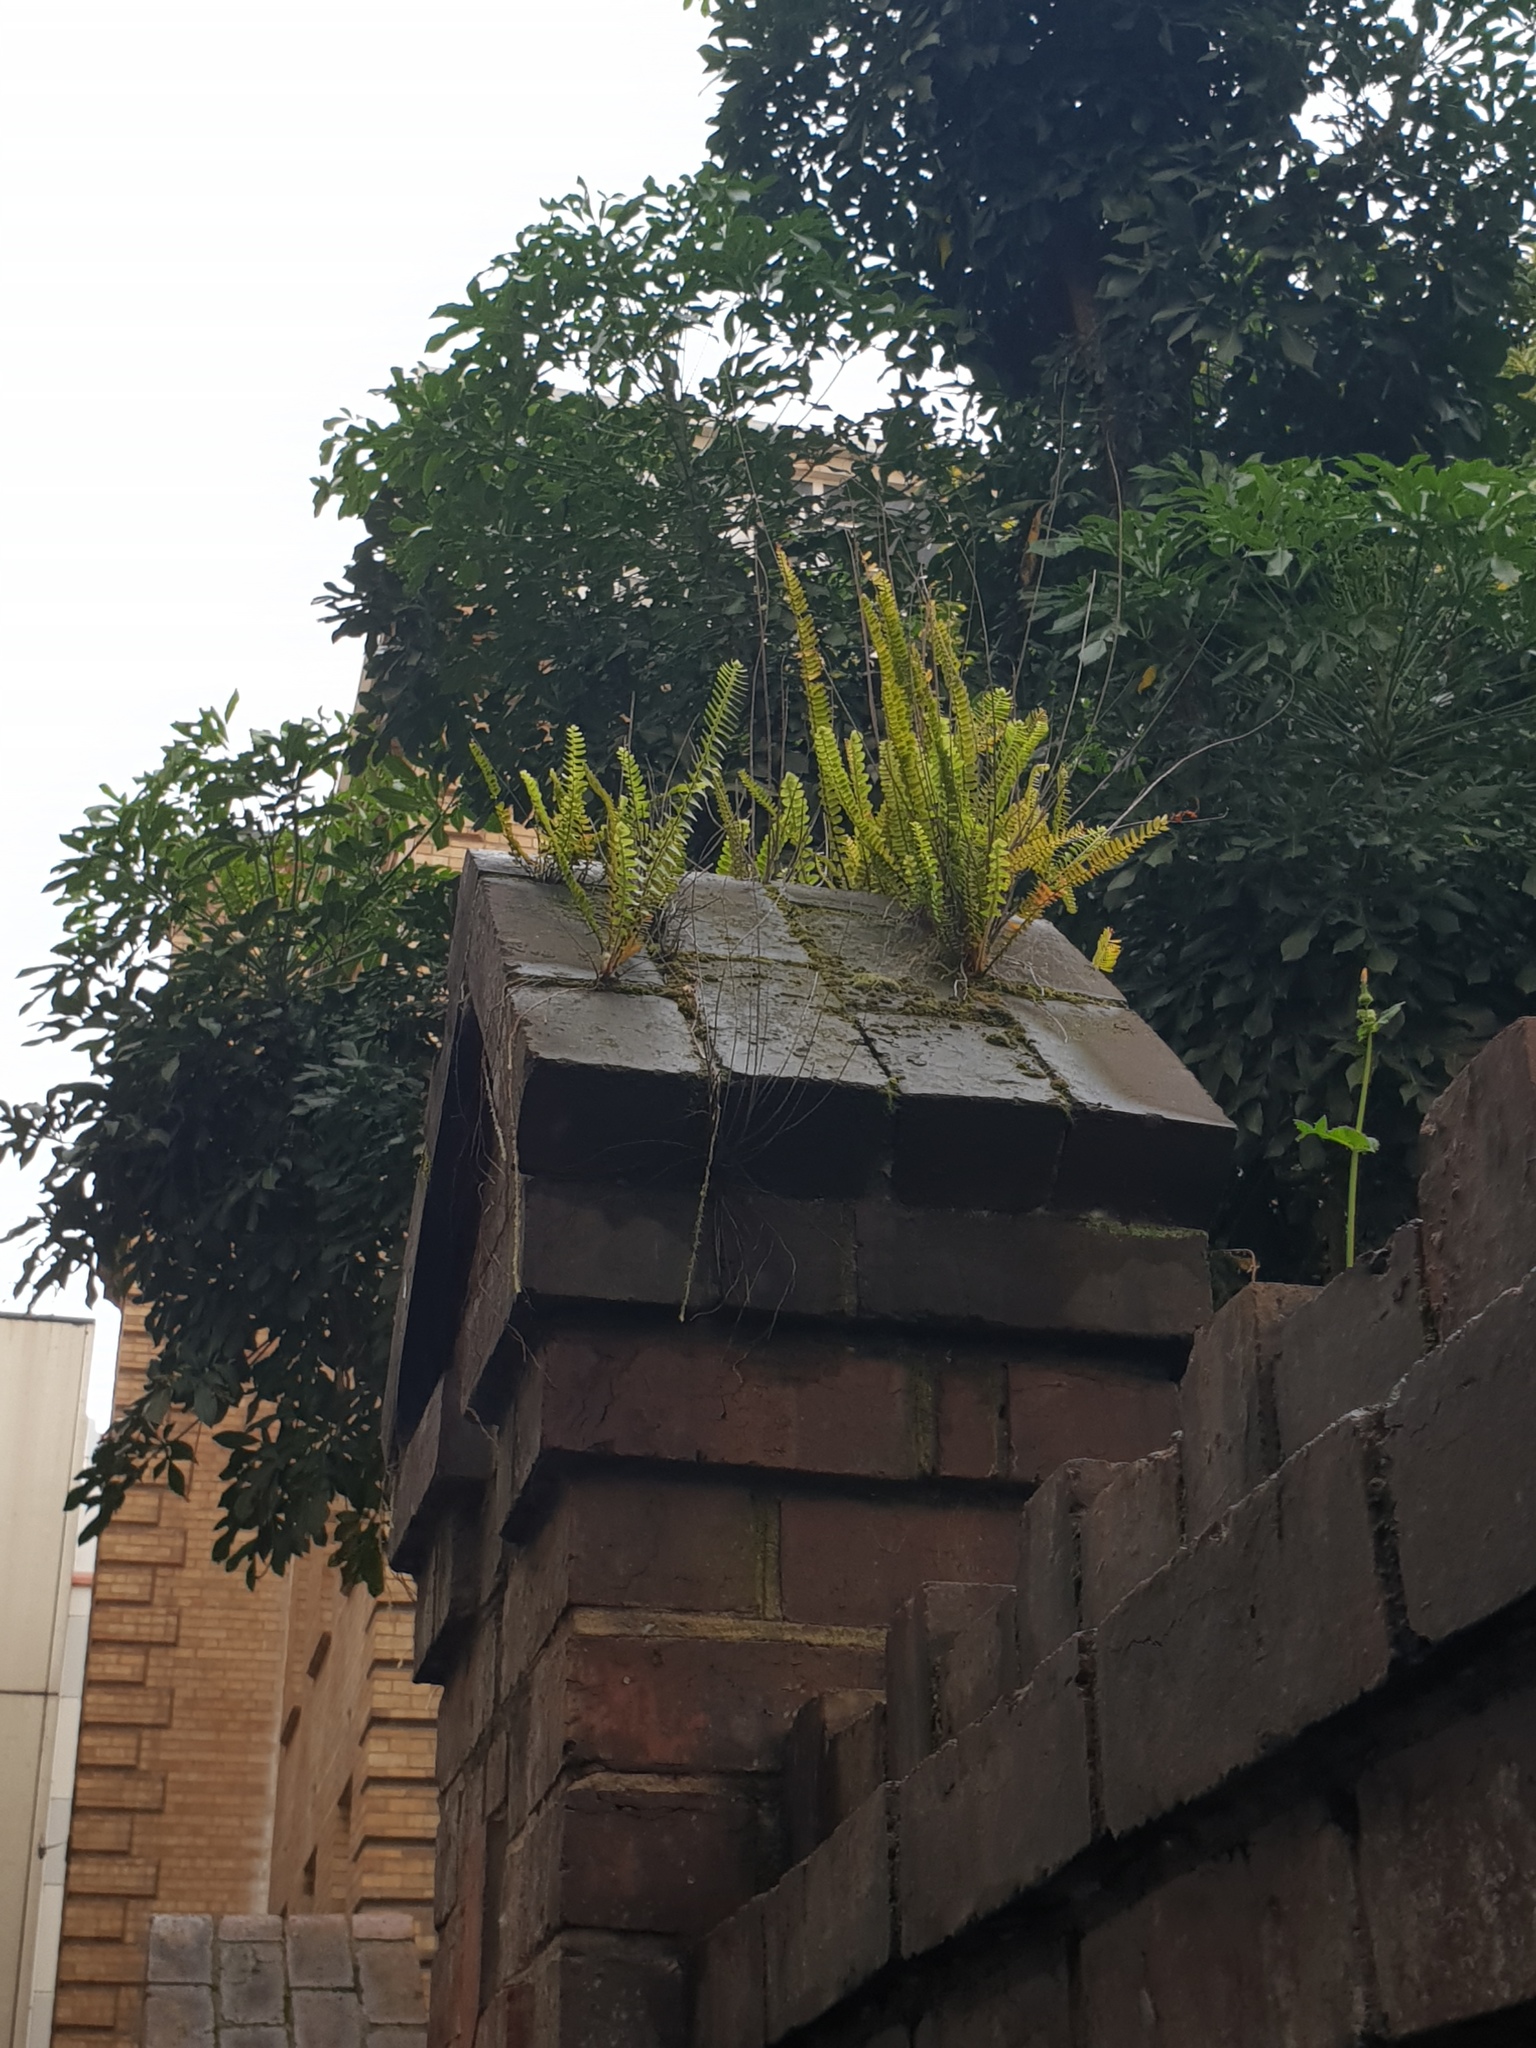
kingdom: Plantae
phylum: Tracheophyta
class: Polypodiopsida
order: Polypodiales
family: Nephrolepidaceae
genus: Nephrolepis
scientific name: Nephrolepis cordifolia
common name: Narrow swordfern
